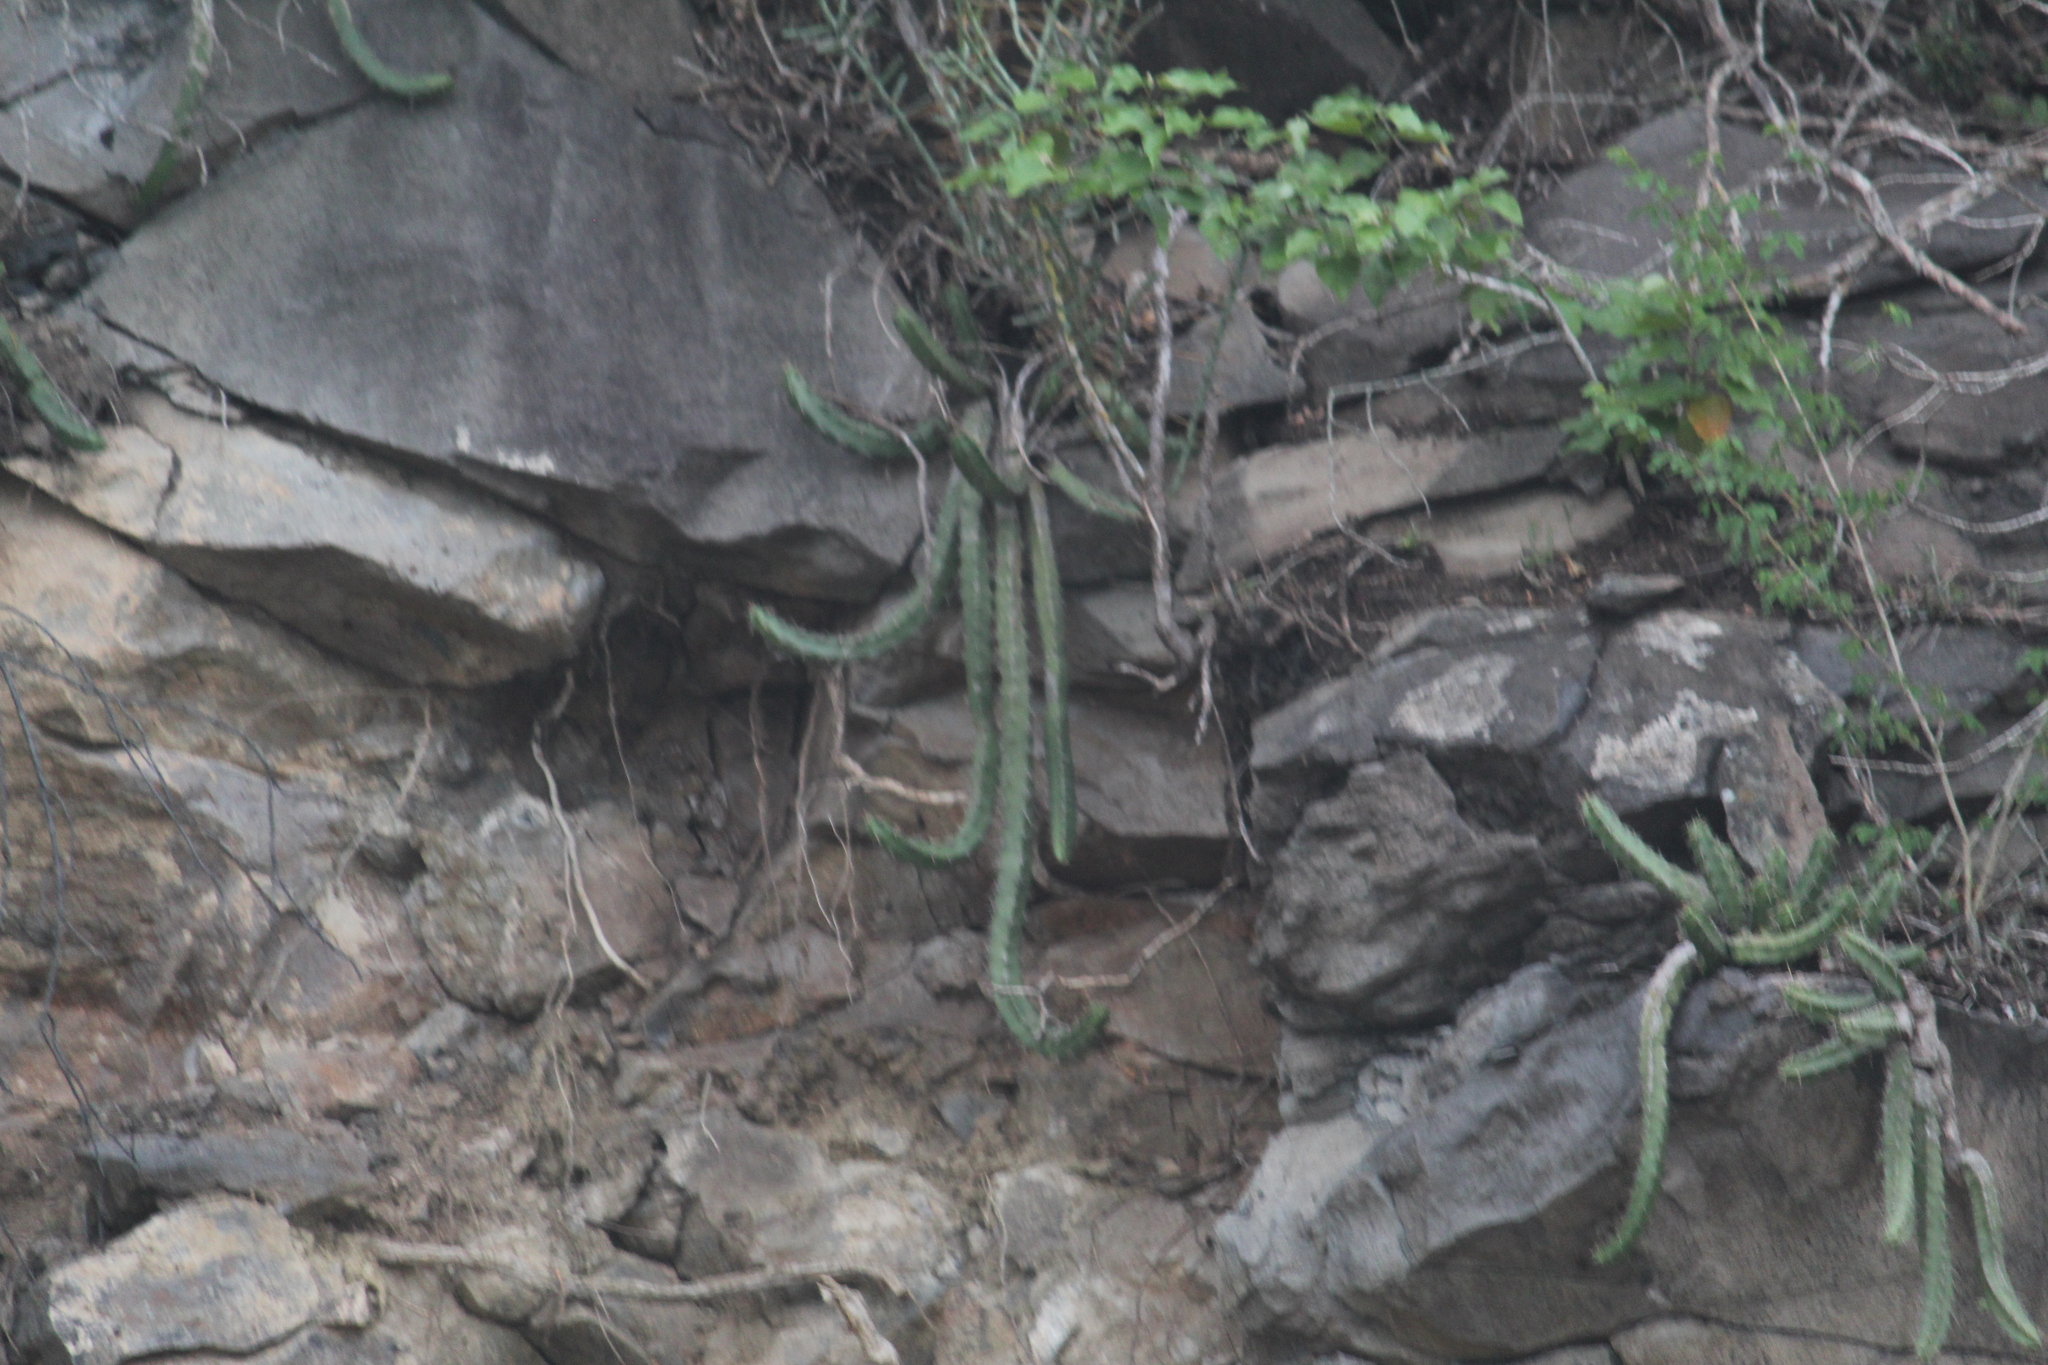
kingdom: Plantae
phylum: Tracheophyta
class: Magnoliopsida
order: Caryophyllales
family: Cactaceae
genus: Echinocereus
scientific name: Echinocereus pentalophus
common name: Ladyfinger cactus
